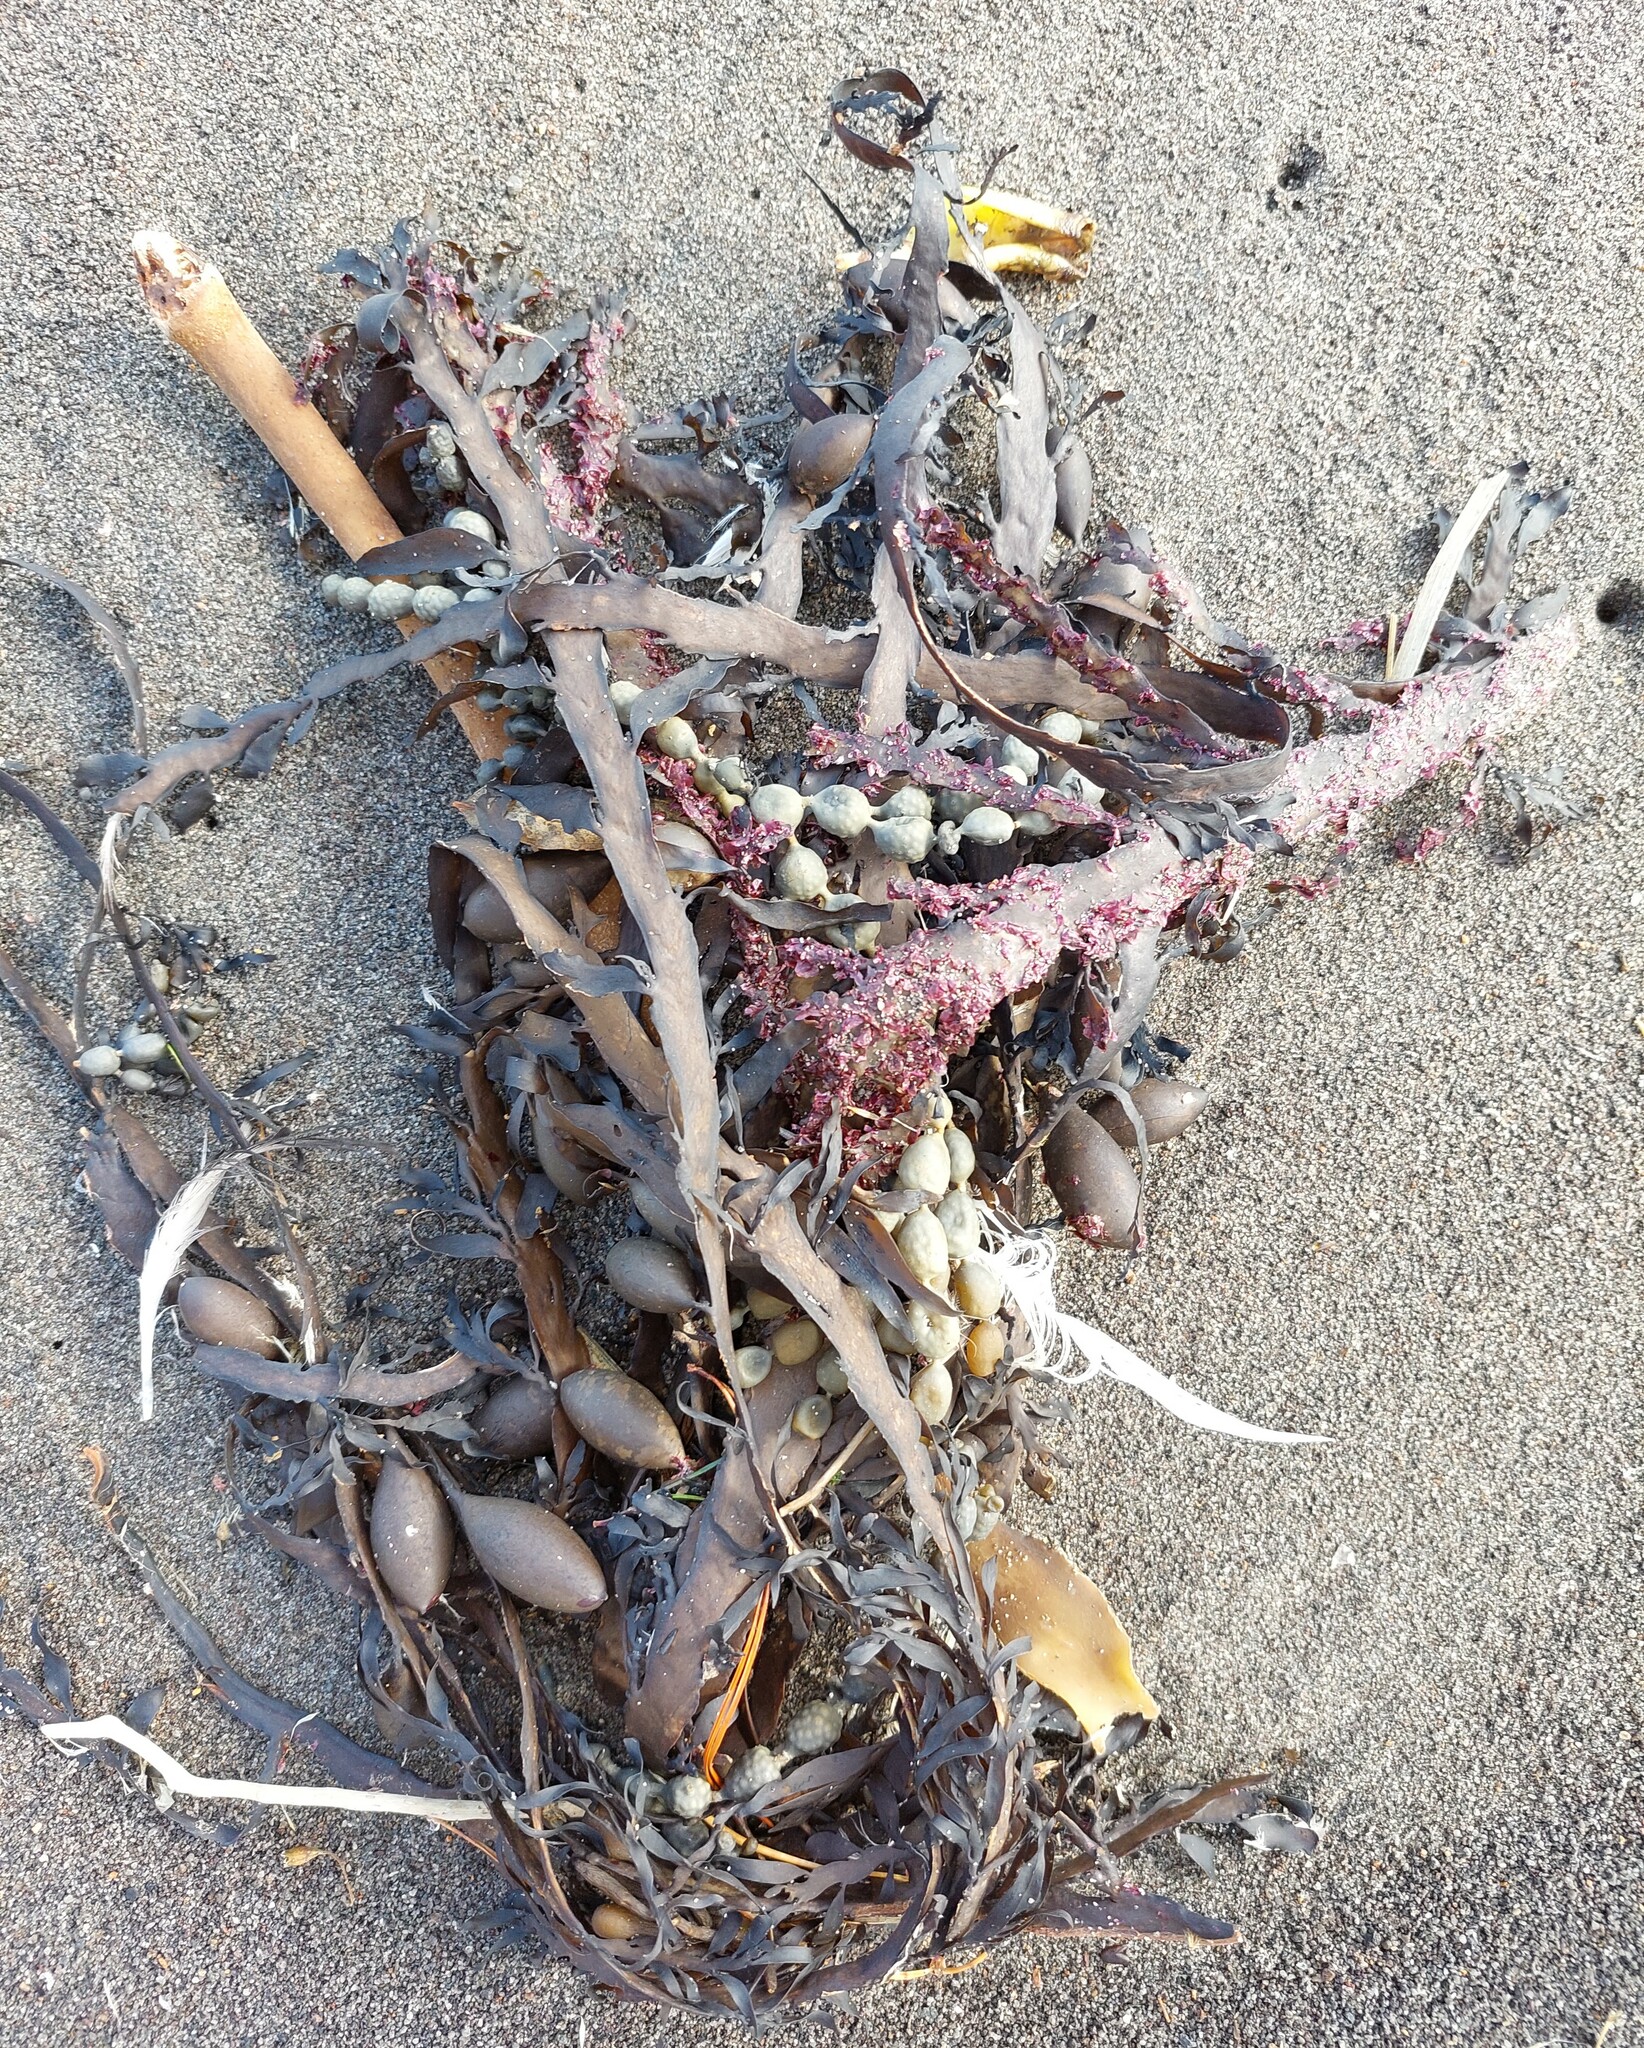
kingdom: Chromista
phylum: Ochrophyta
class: Phaeophyceae
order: Fucales
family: Hormosiraceae
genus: Hormosira
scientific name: Hormosira banksii
